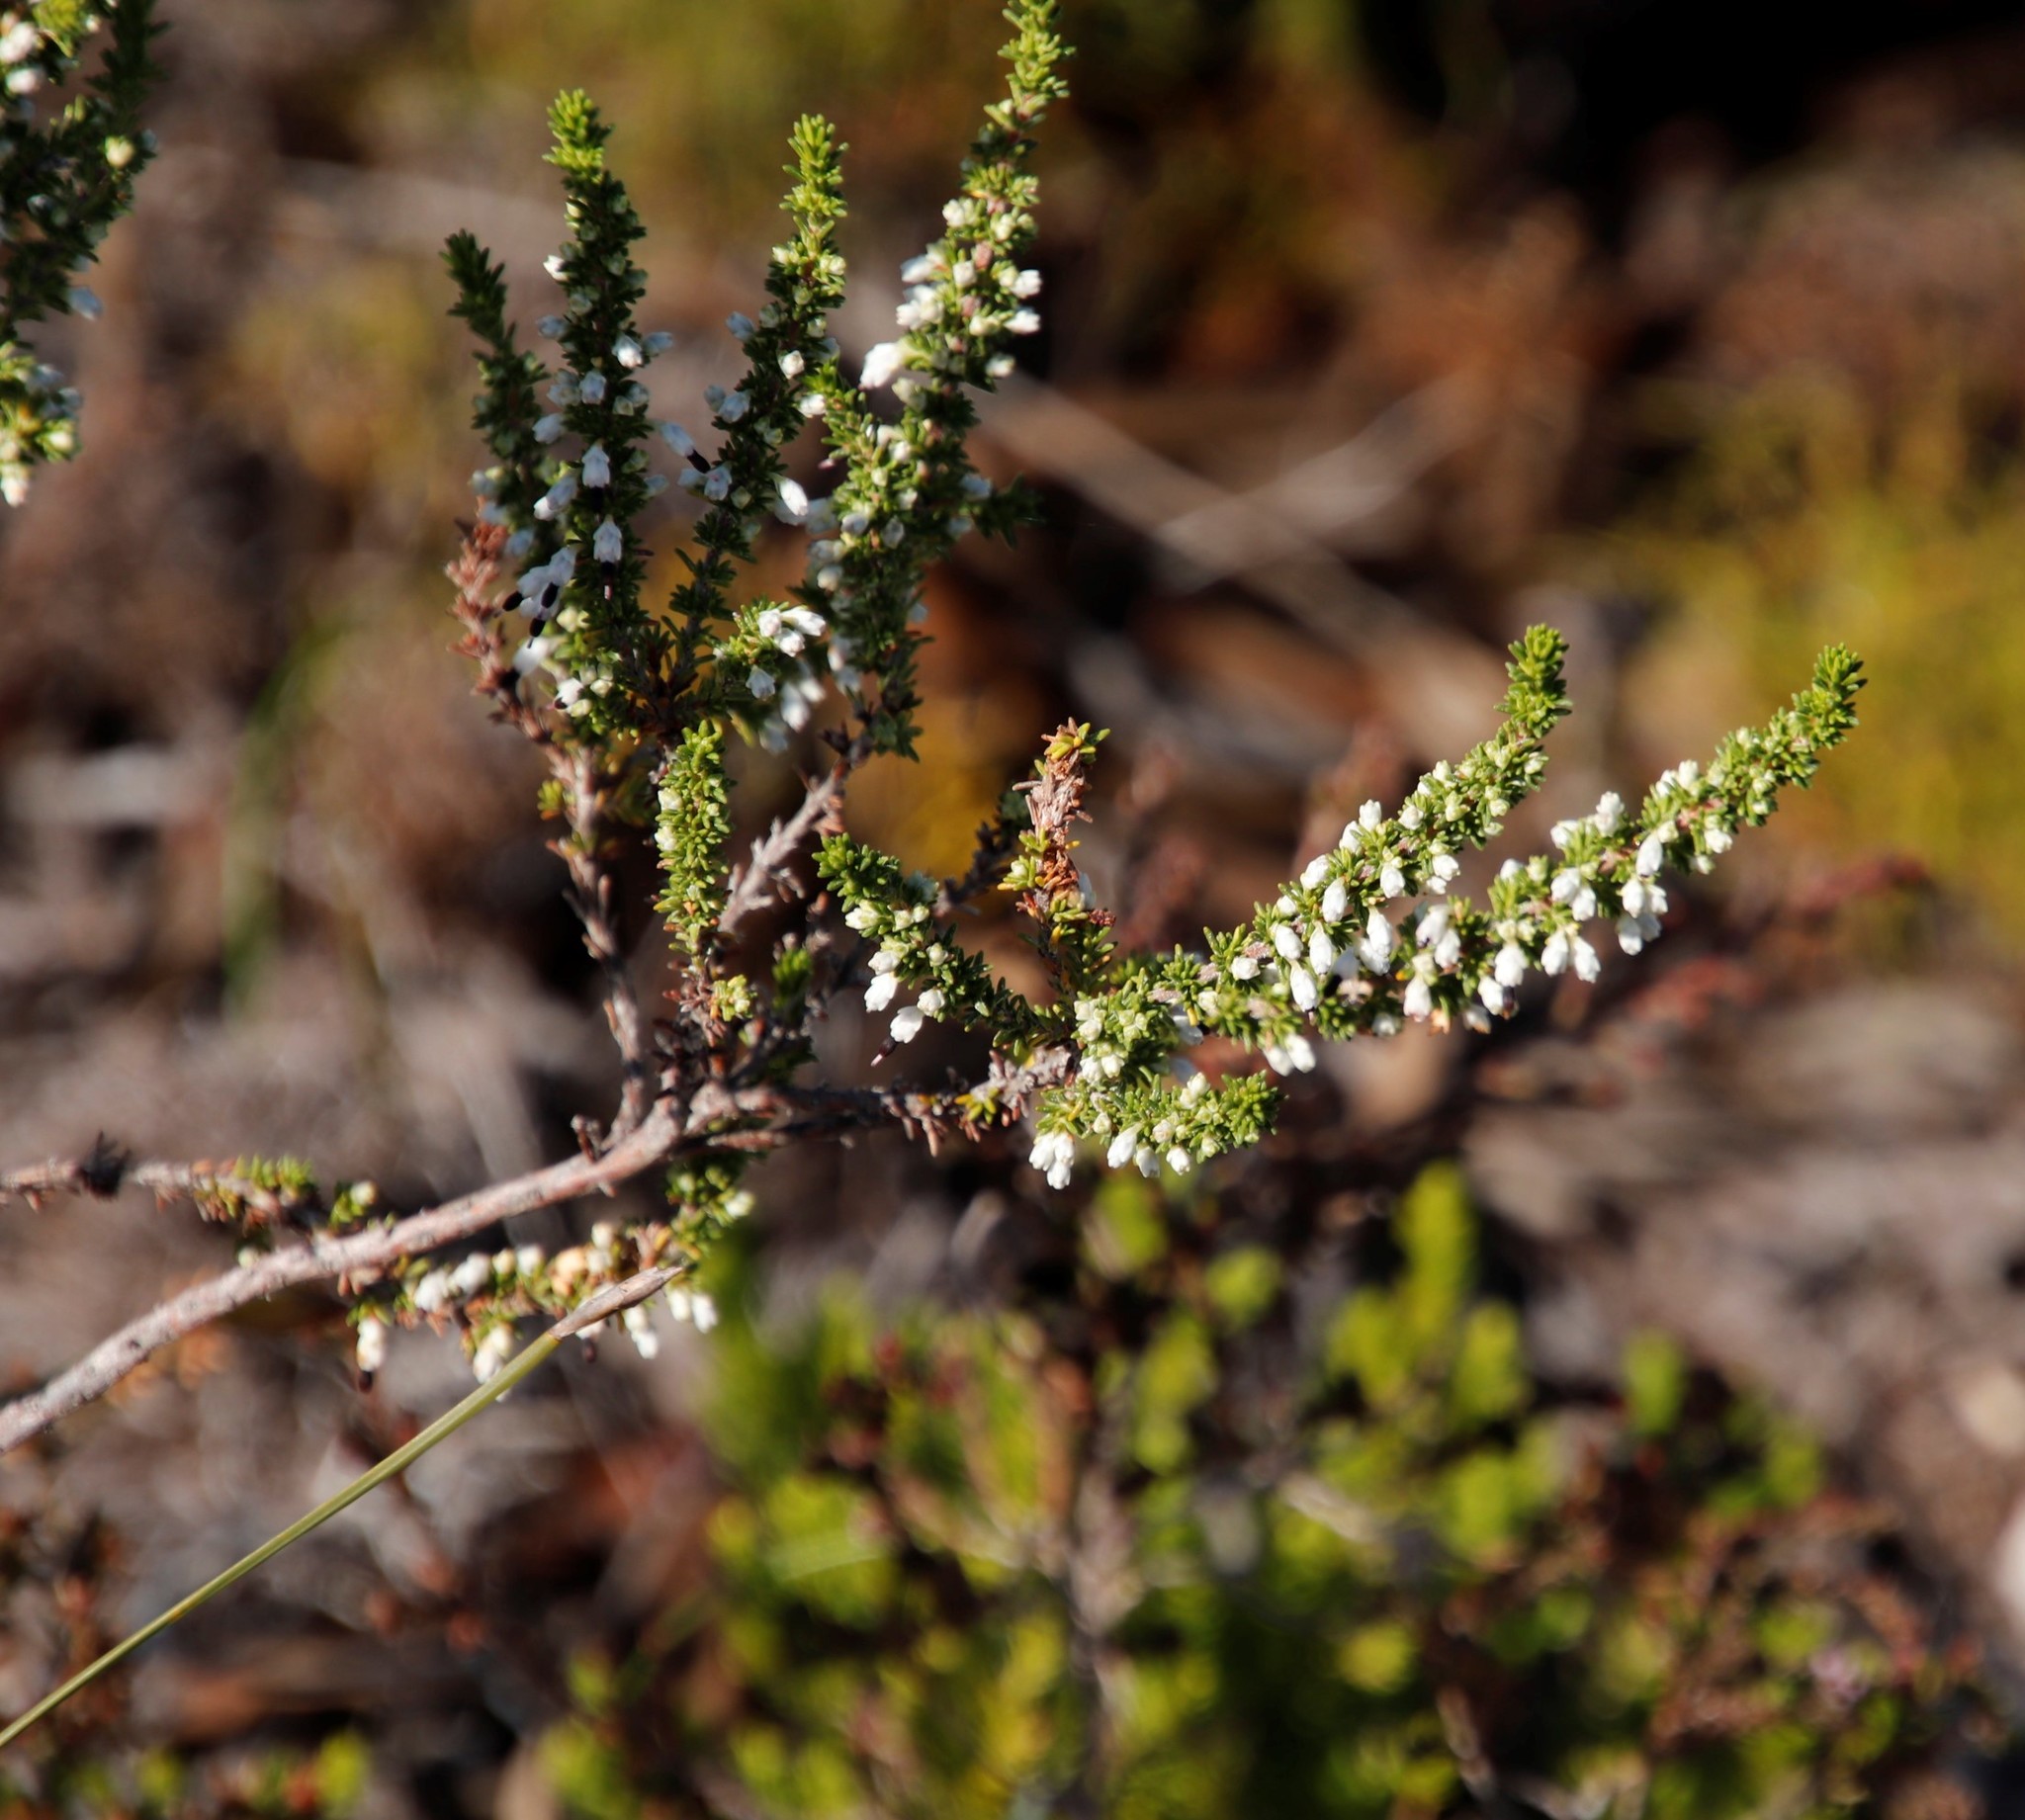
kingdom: Plantae
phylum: Tracheophyta
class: Magnoliopsida
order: Ericales
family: Ericaceae
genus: Erica
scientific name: Erica imbricata
